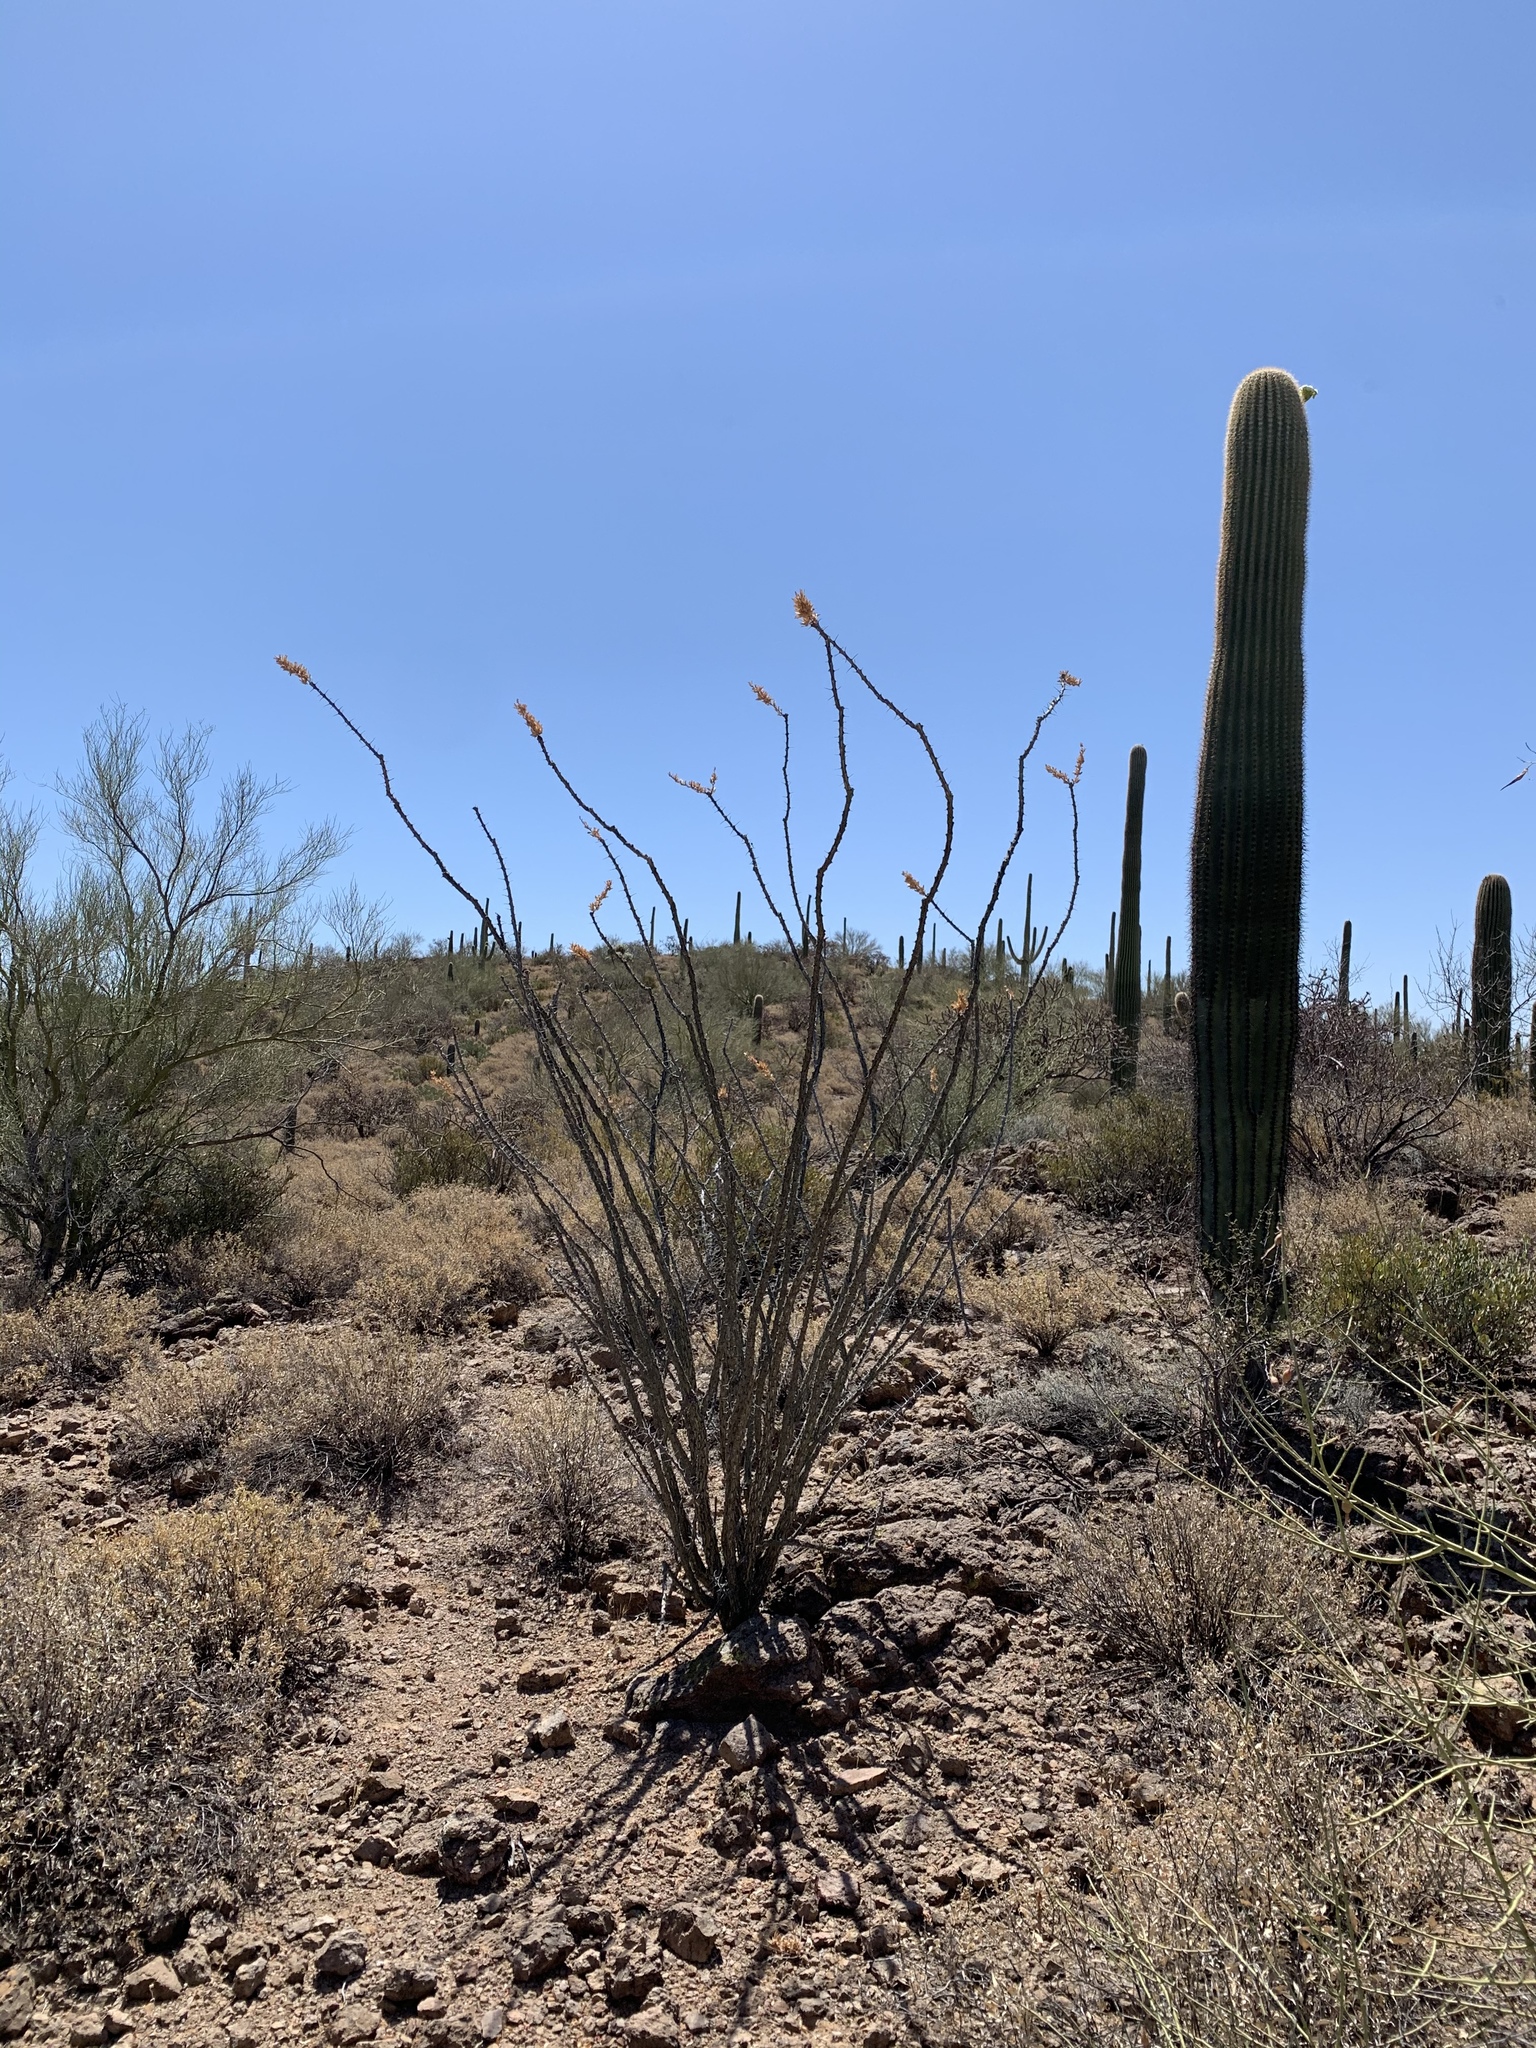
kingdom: Plantae
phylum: Tracheophyta
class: Magnoliopsida
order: Ericales
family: Fouquieriaceae
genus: Fouquieria
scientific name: Fouquieria splendens
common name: Vine-cactus
